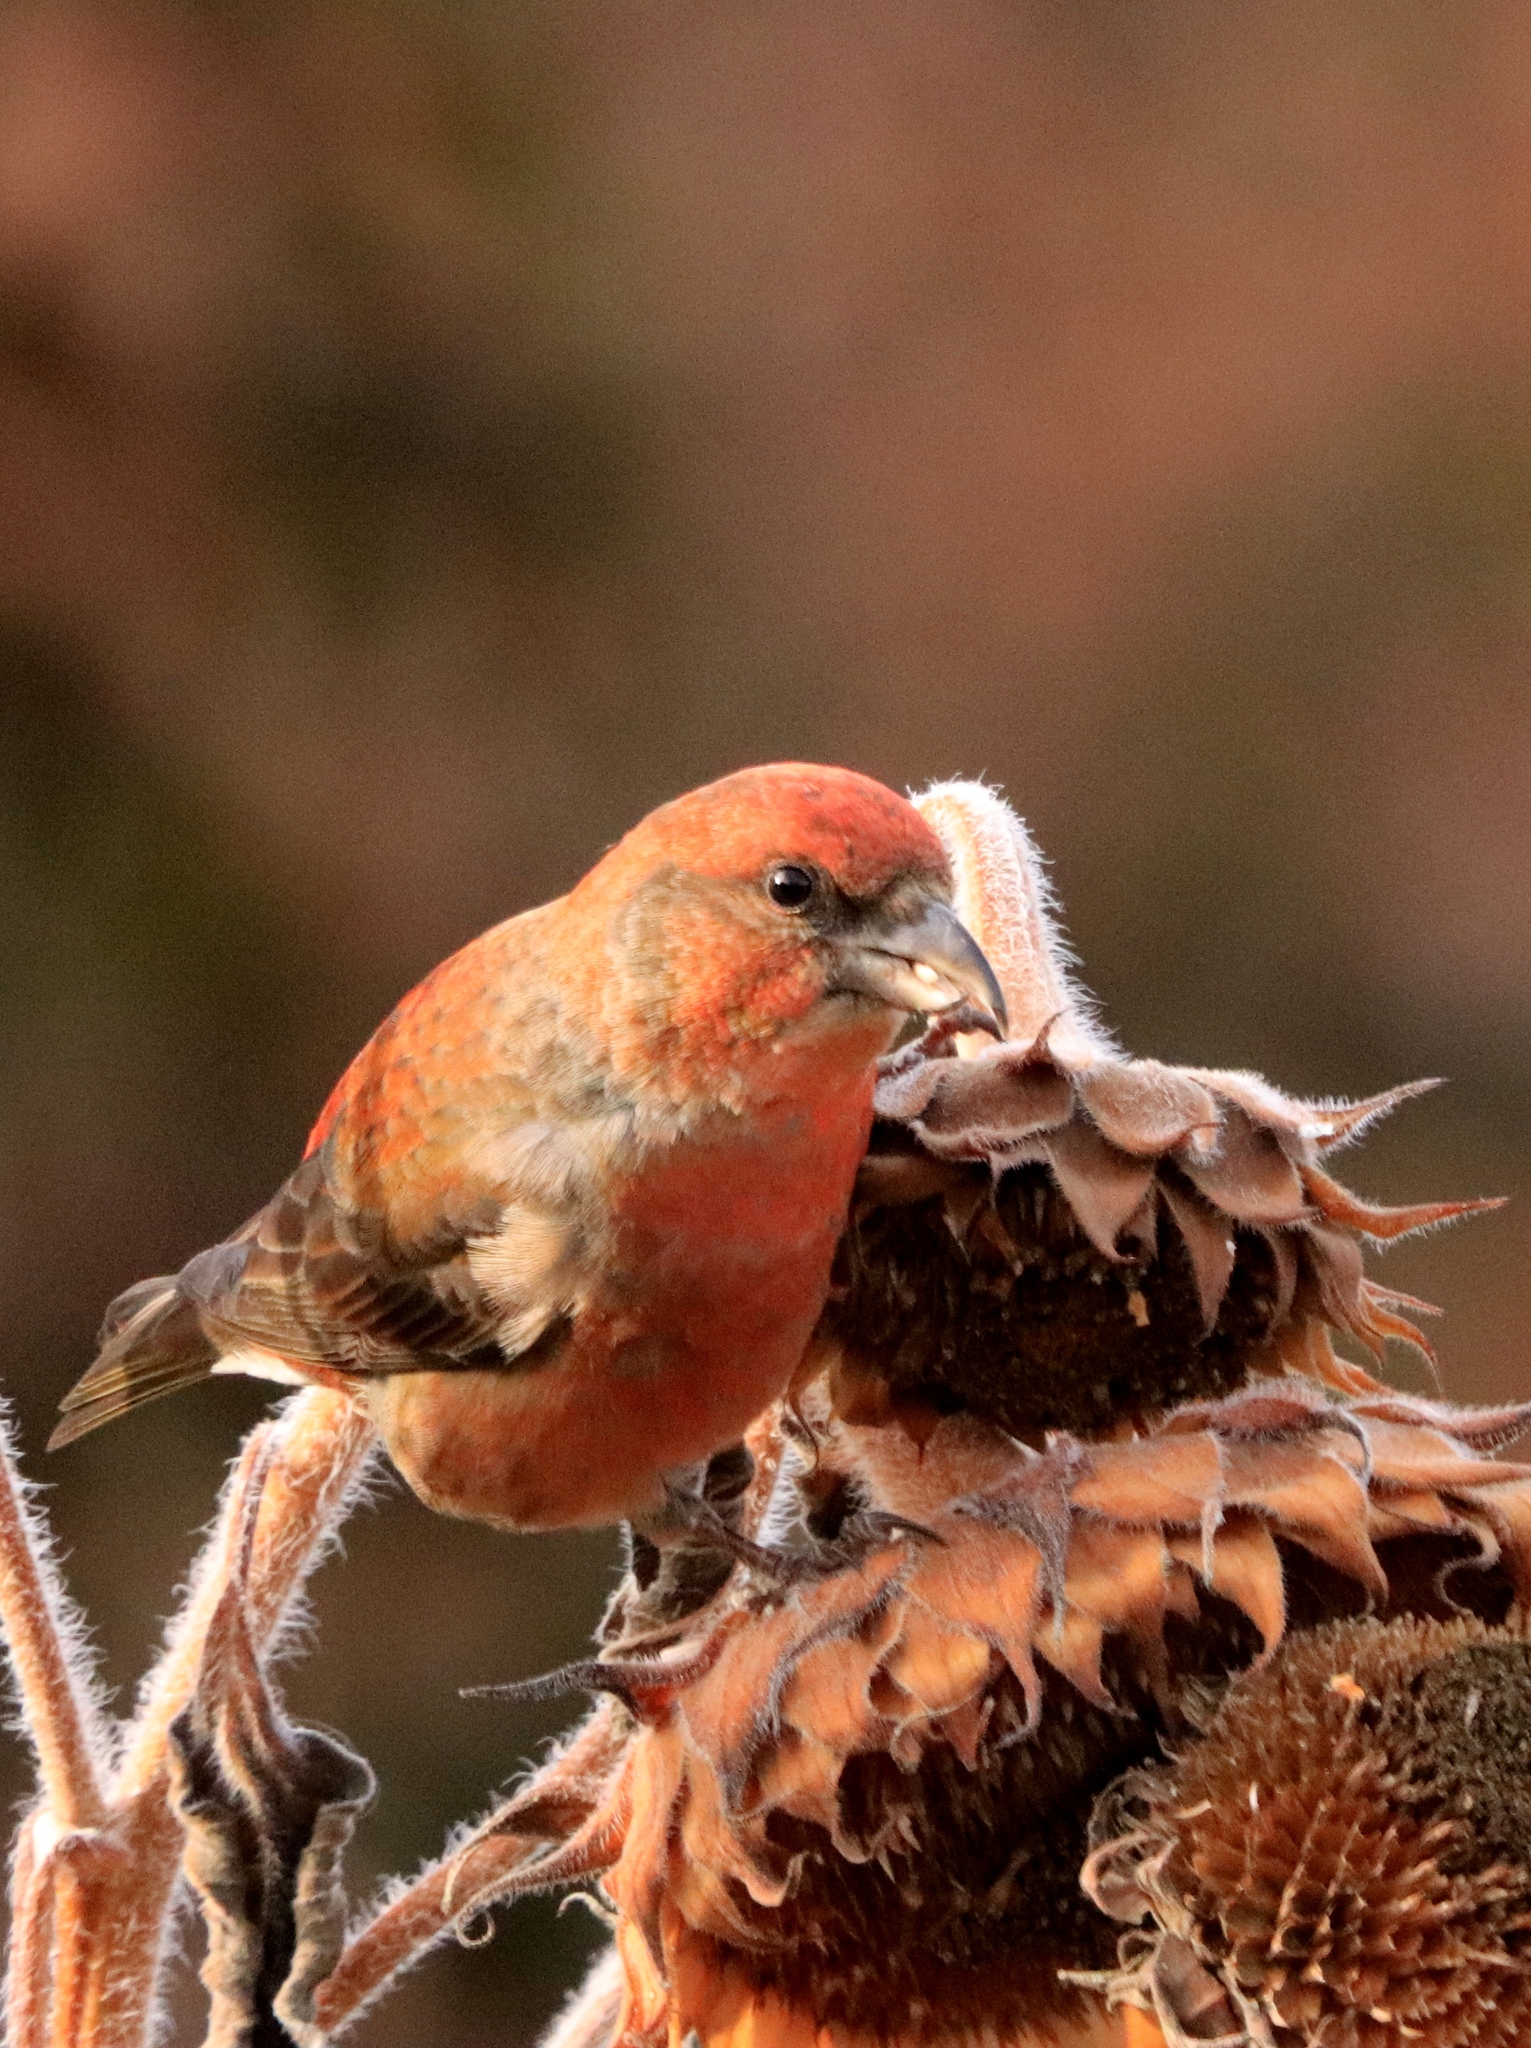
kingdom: Animalia
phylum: Chordata
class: Aves
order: Passeriformes
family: Fringillidae
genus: Loxia
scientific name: Loxia curvirostra
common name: Red crossbill
